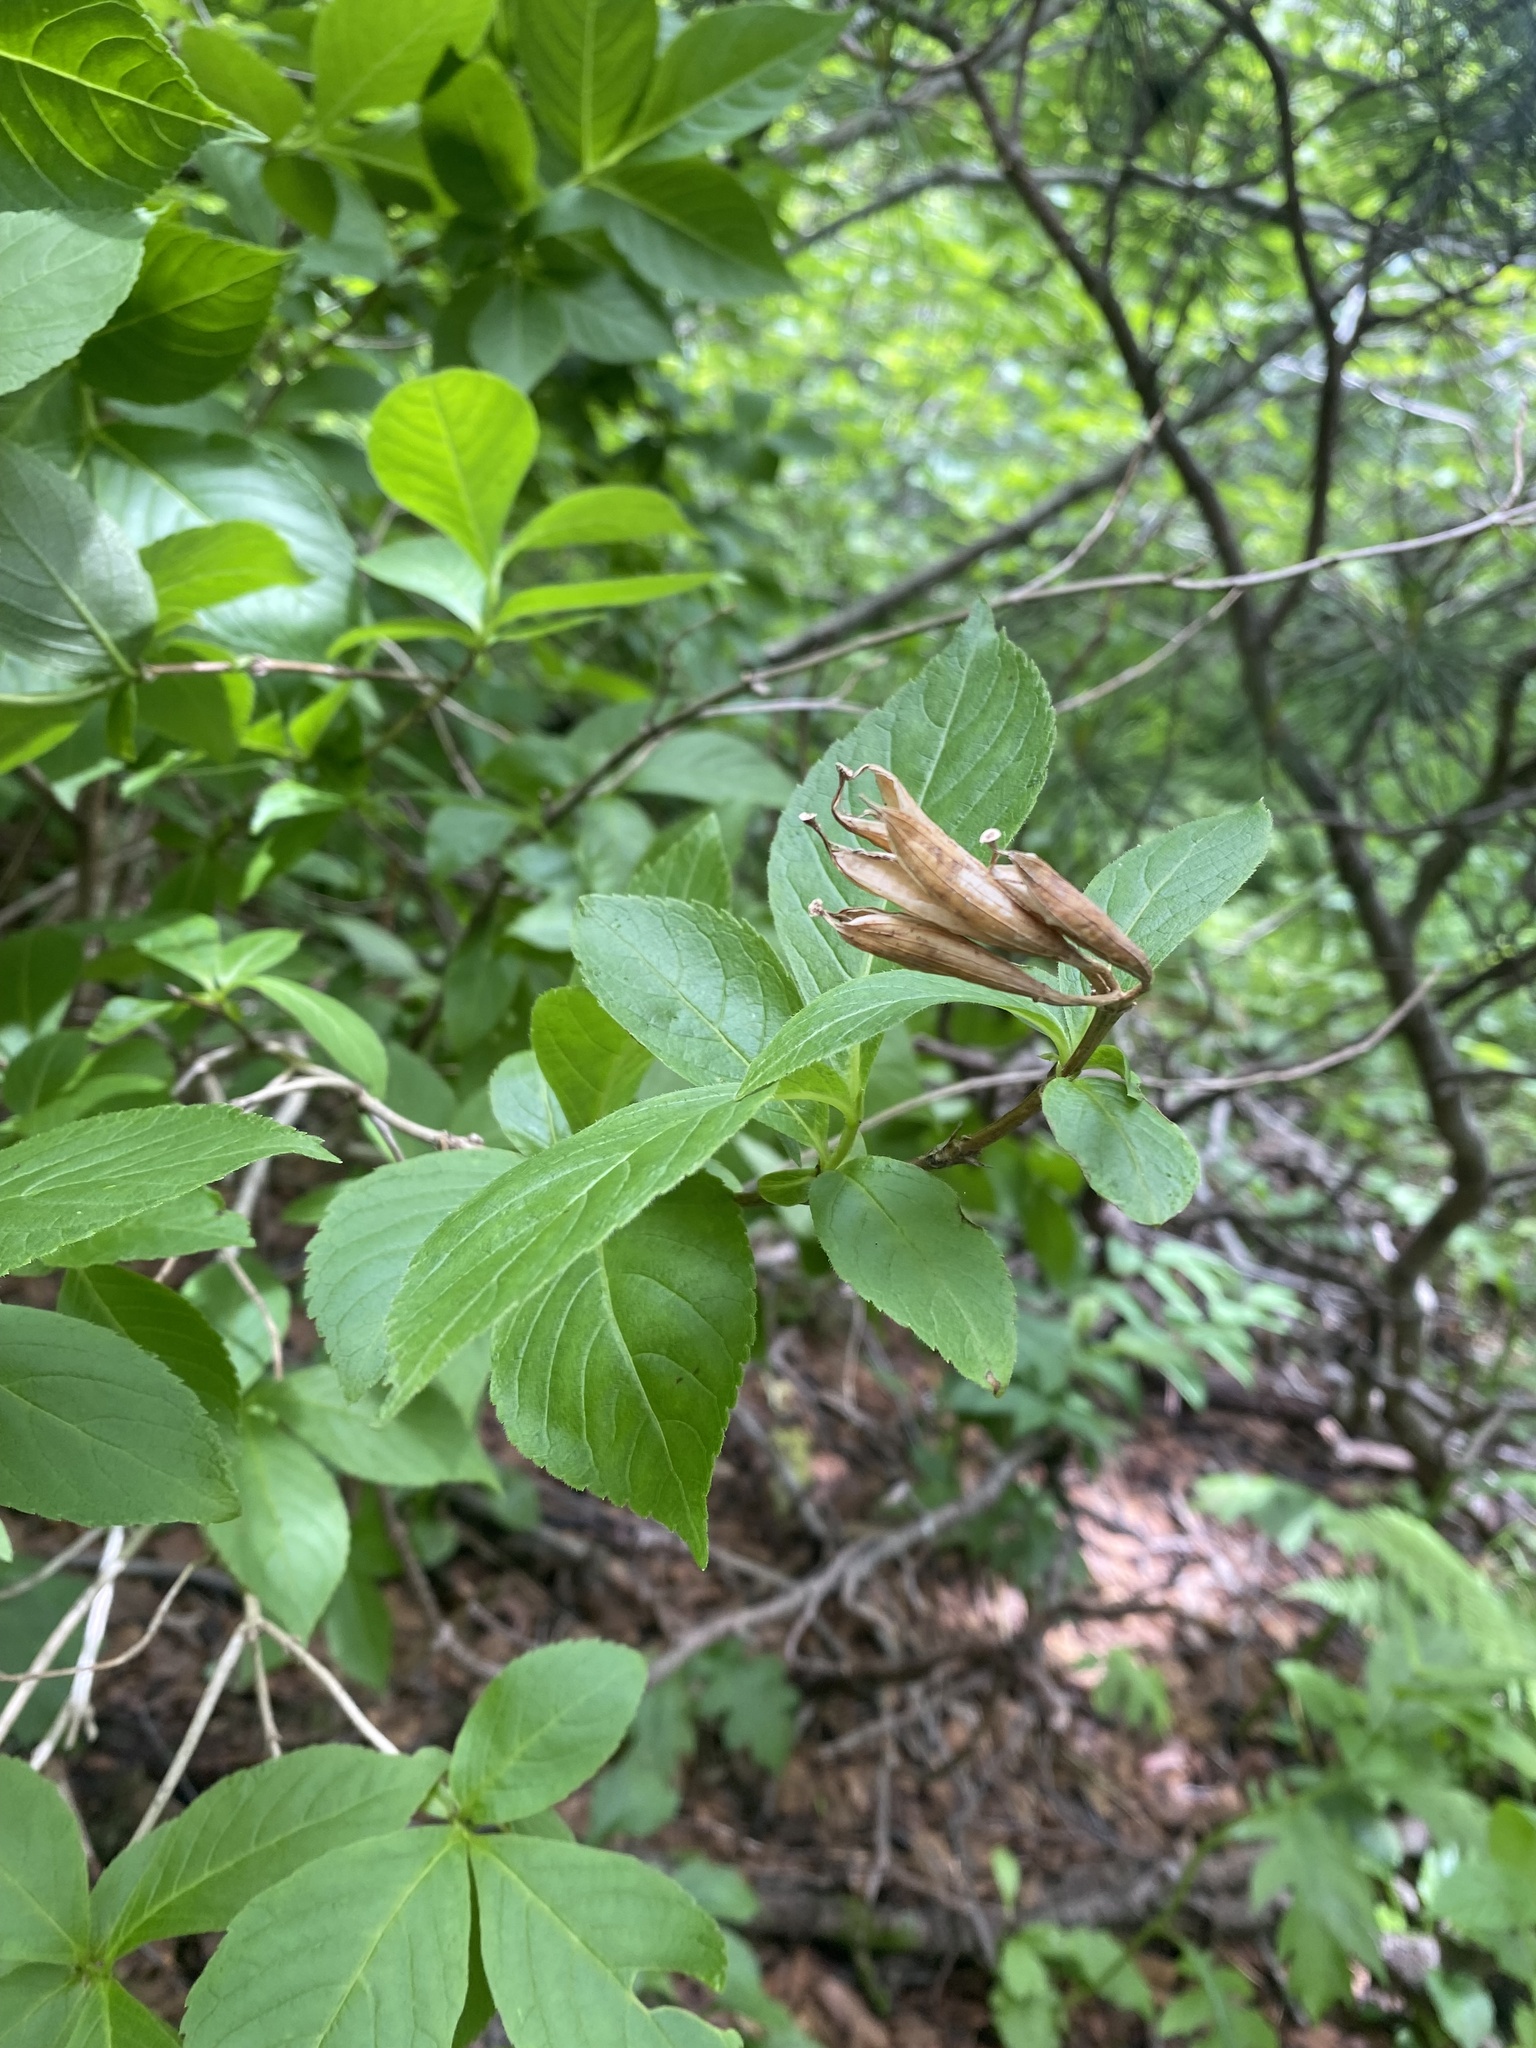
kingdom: Plantae
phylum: Tracheophyta
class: Magnoliopsida
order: Dipsacales
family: Caprifoliaceae
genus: Weigela
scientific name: Weigela middendorffiana
